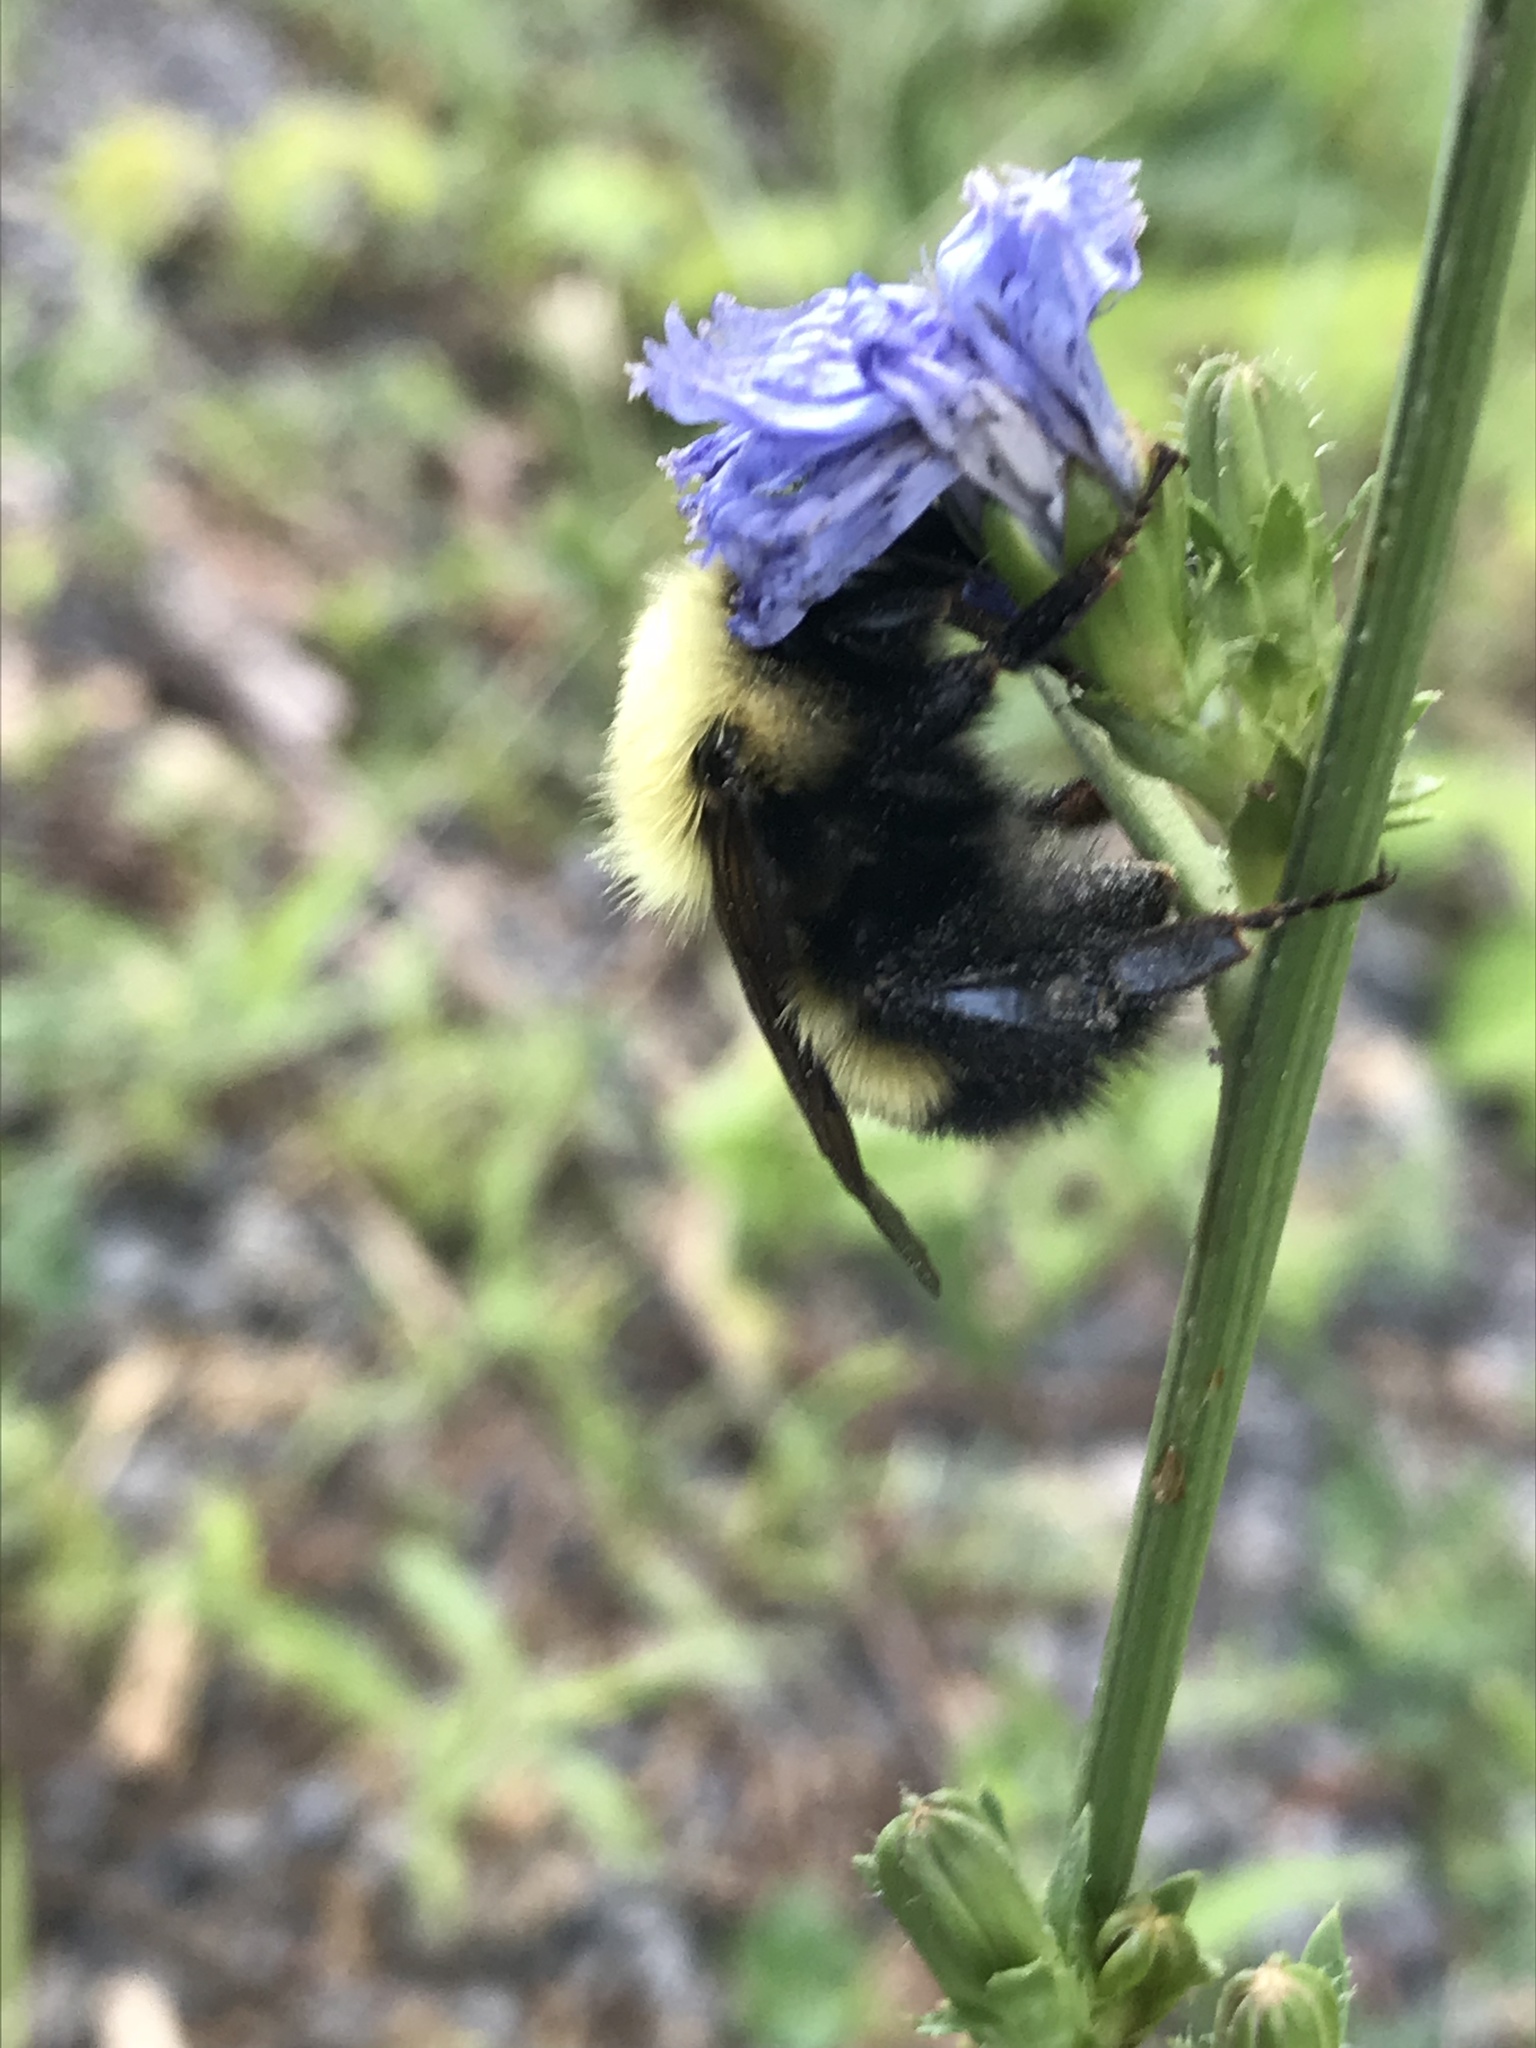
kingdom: Animalia
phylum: Arthropoda
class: Insecta
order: Hymenoptera
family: Apidae
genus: Bombus
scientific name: Bombus perplexus
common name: Confusing bumble bee
